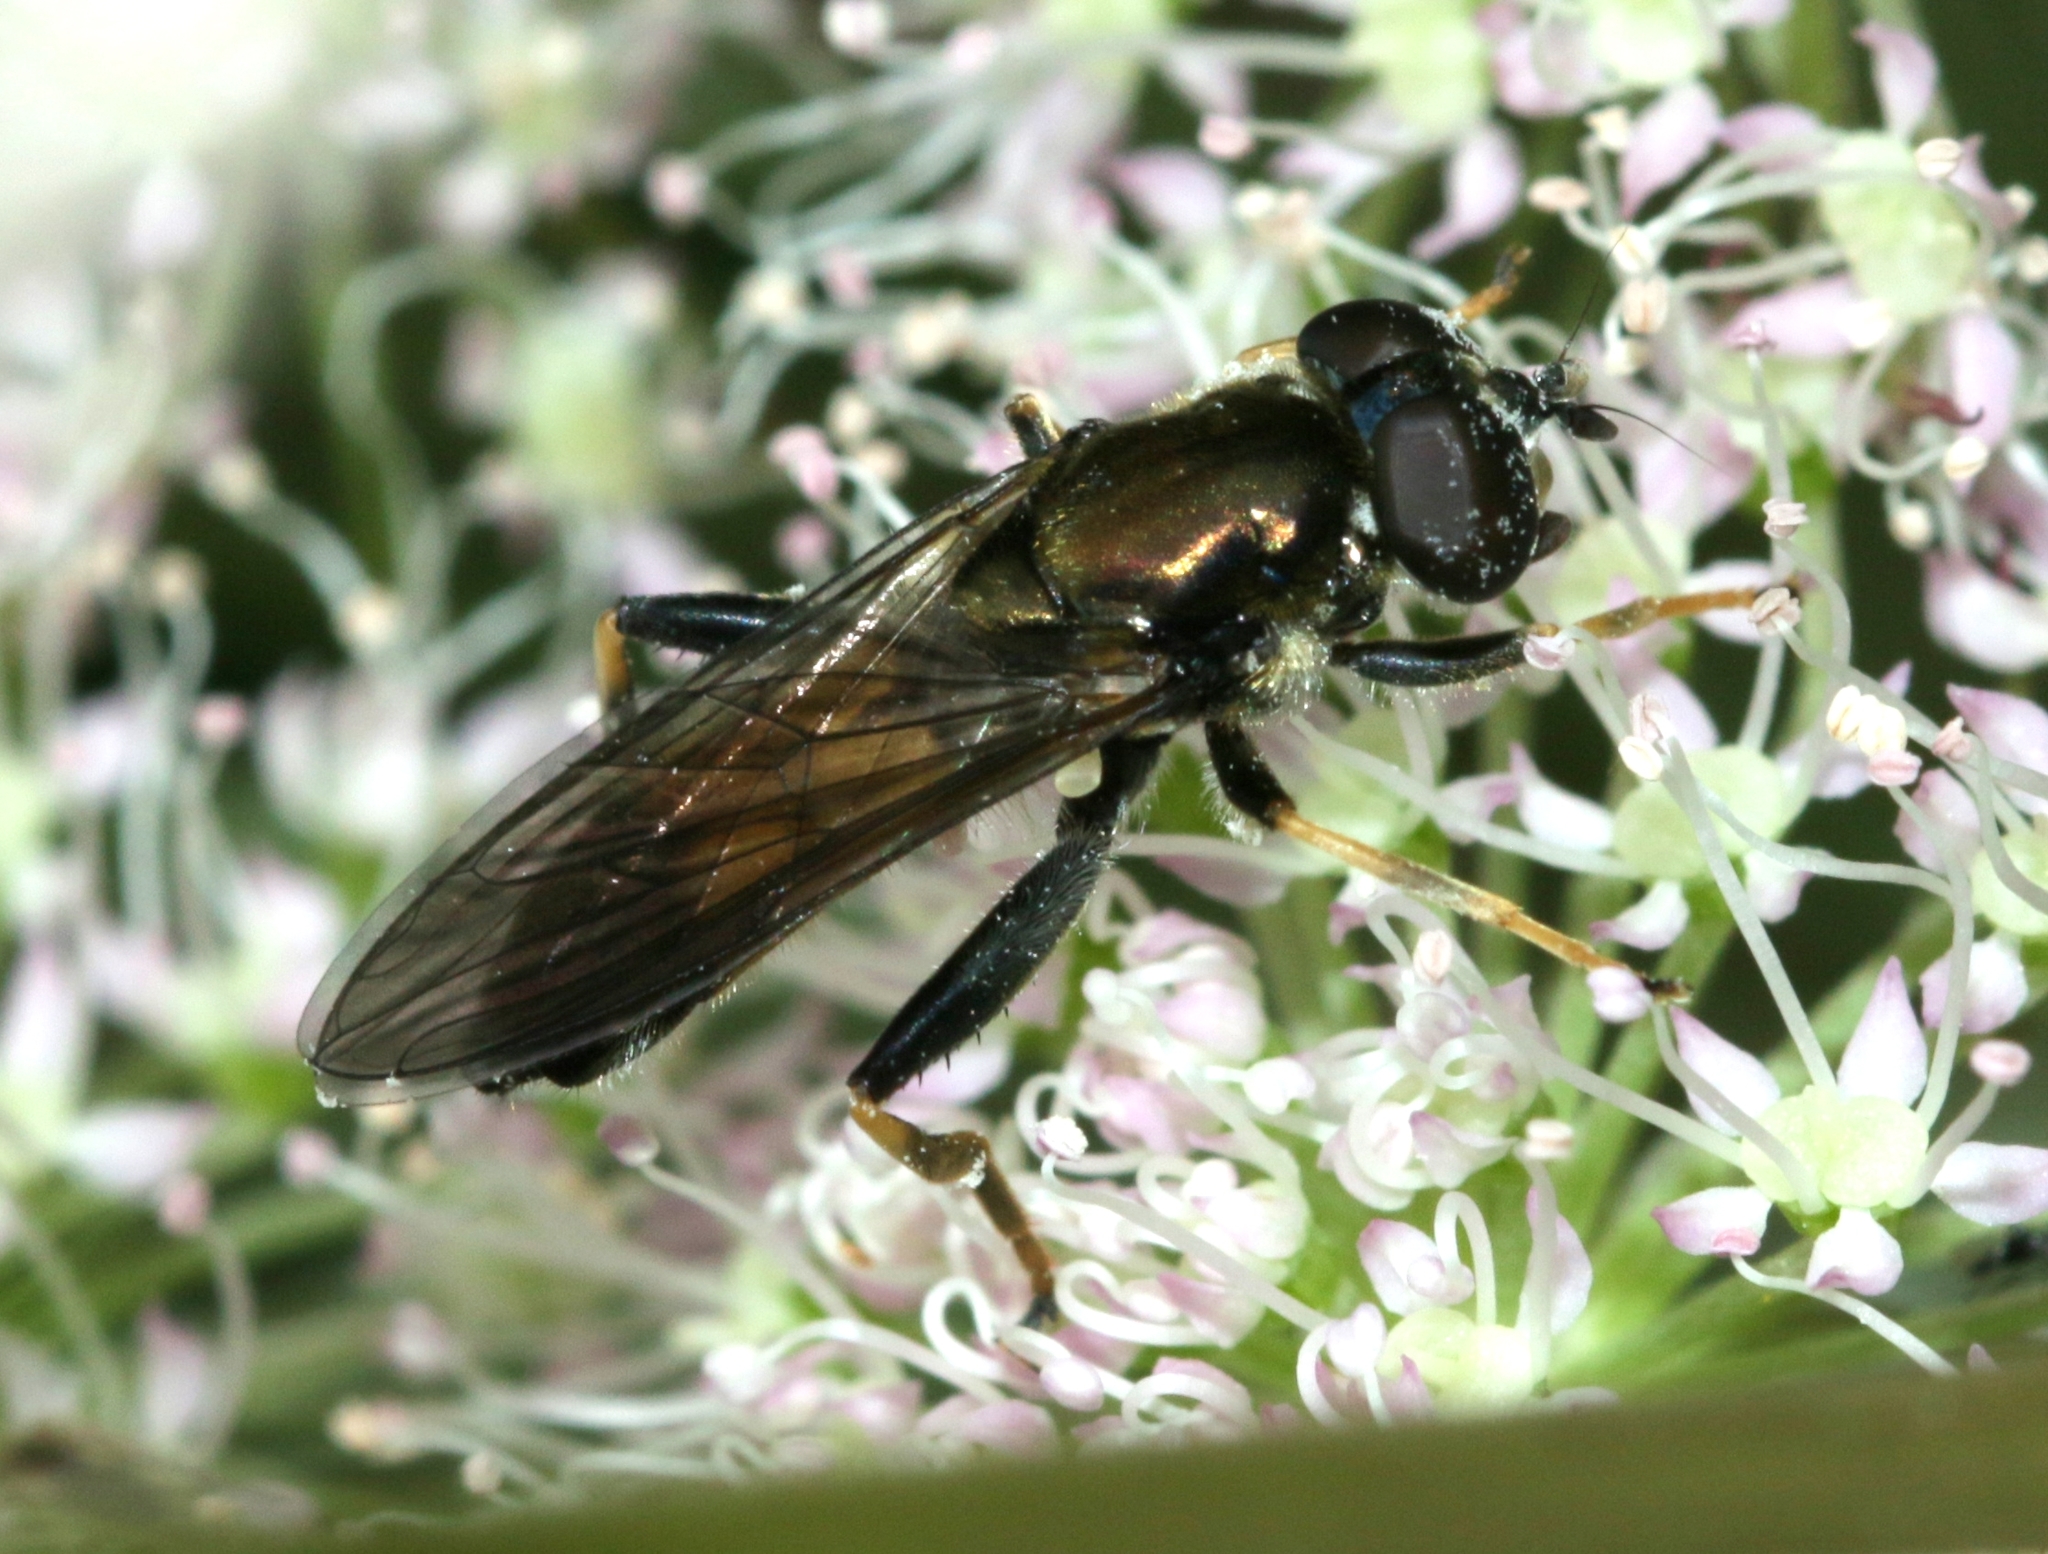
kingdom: Animalia
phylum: Arthropoda
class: Insecta
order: Diptera
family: Syrphidae
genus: Xylota
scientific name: Xylota segnis
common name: Brown-toed forest fly
